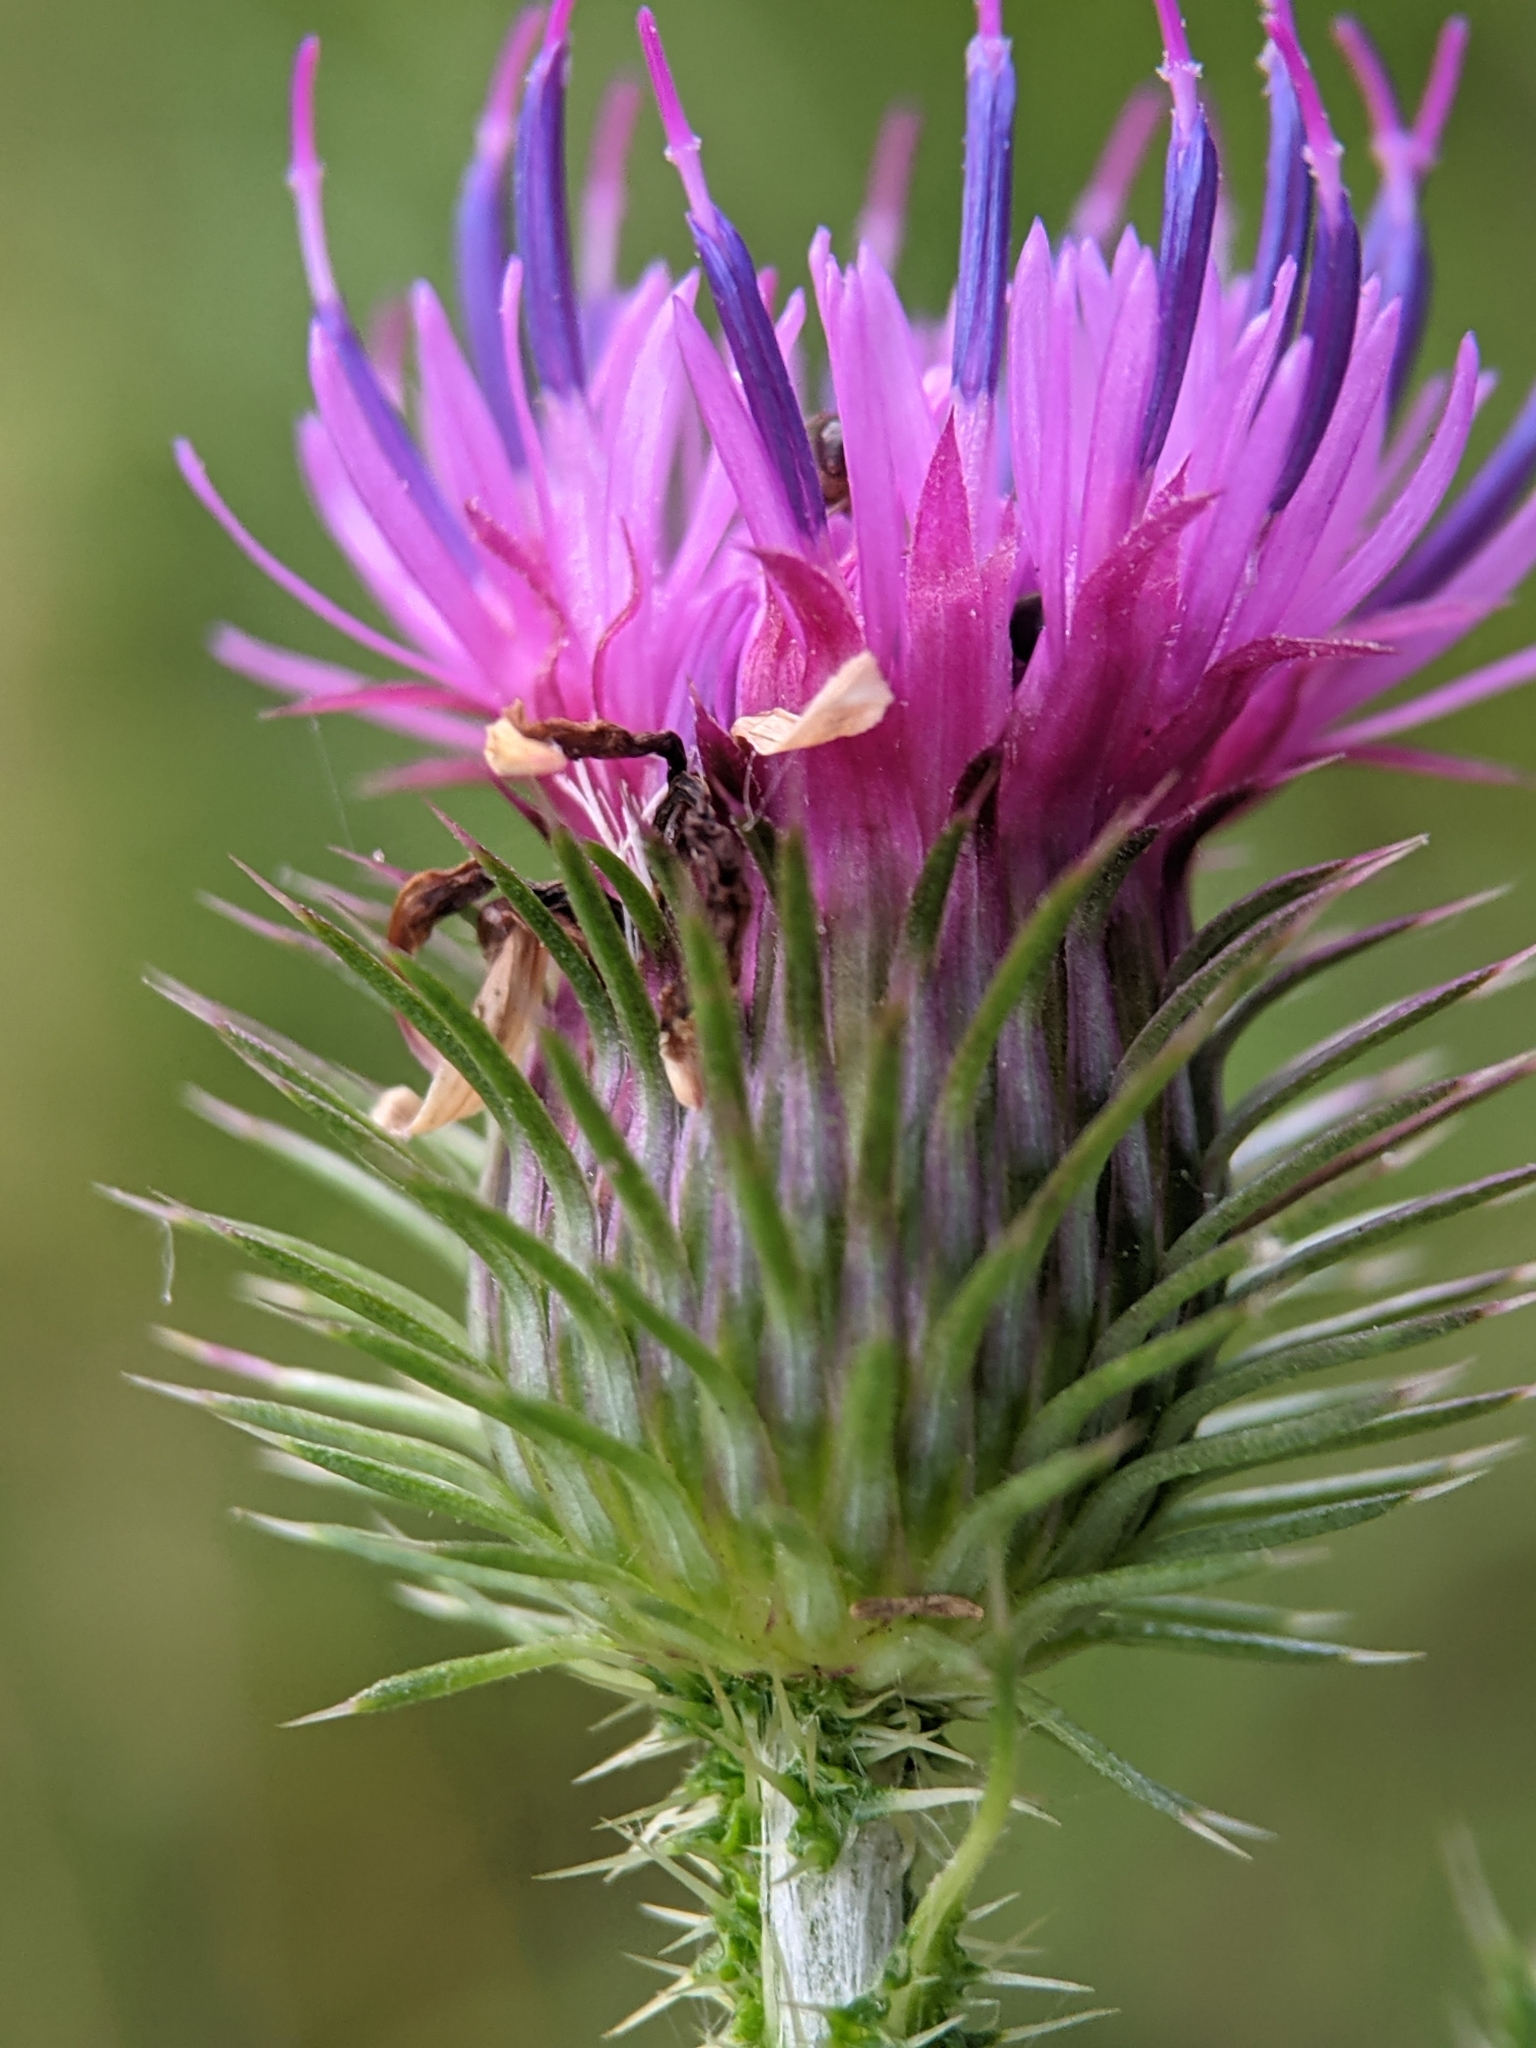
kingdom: Plantae
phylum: Tracheophyta
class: Magnoliopsida
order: Asterales
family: Asteraceae
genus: Carduus
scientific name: Carduus acanthoides
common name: Plumeless thistle
